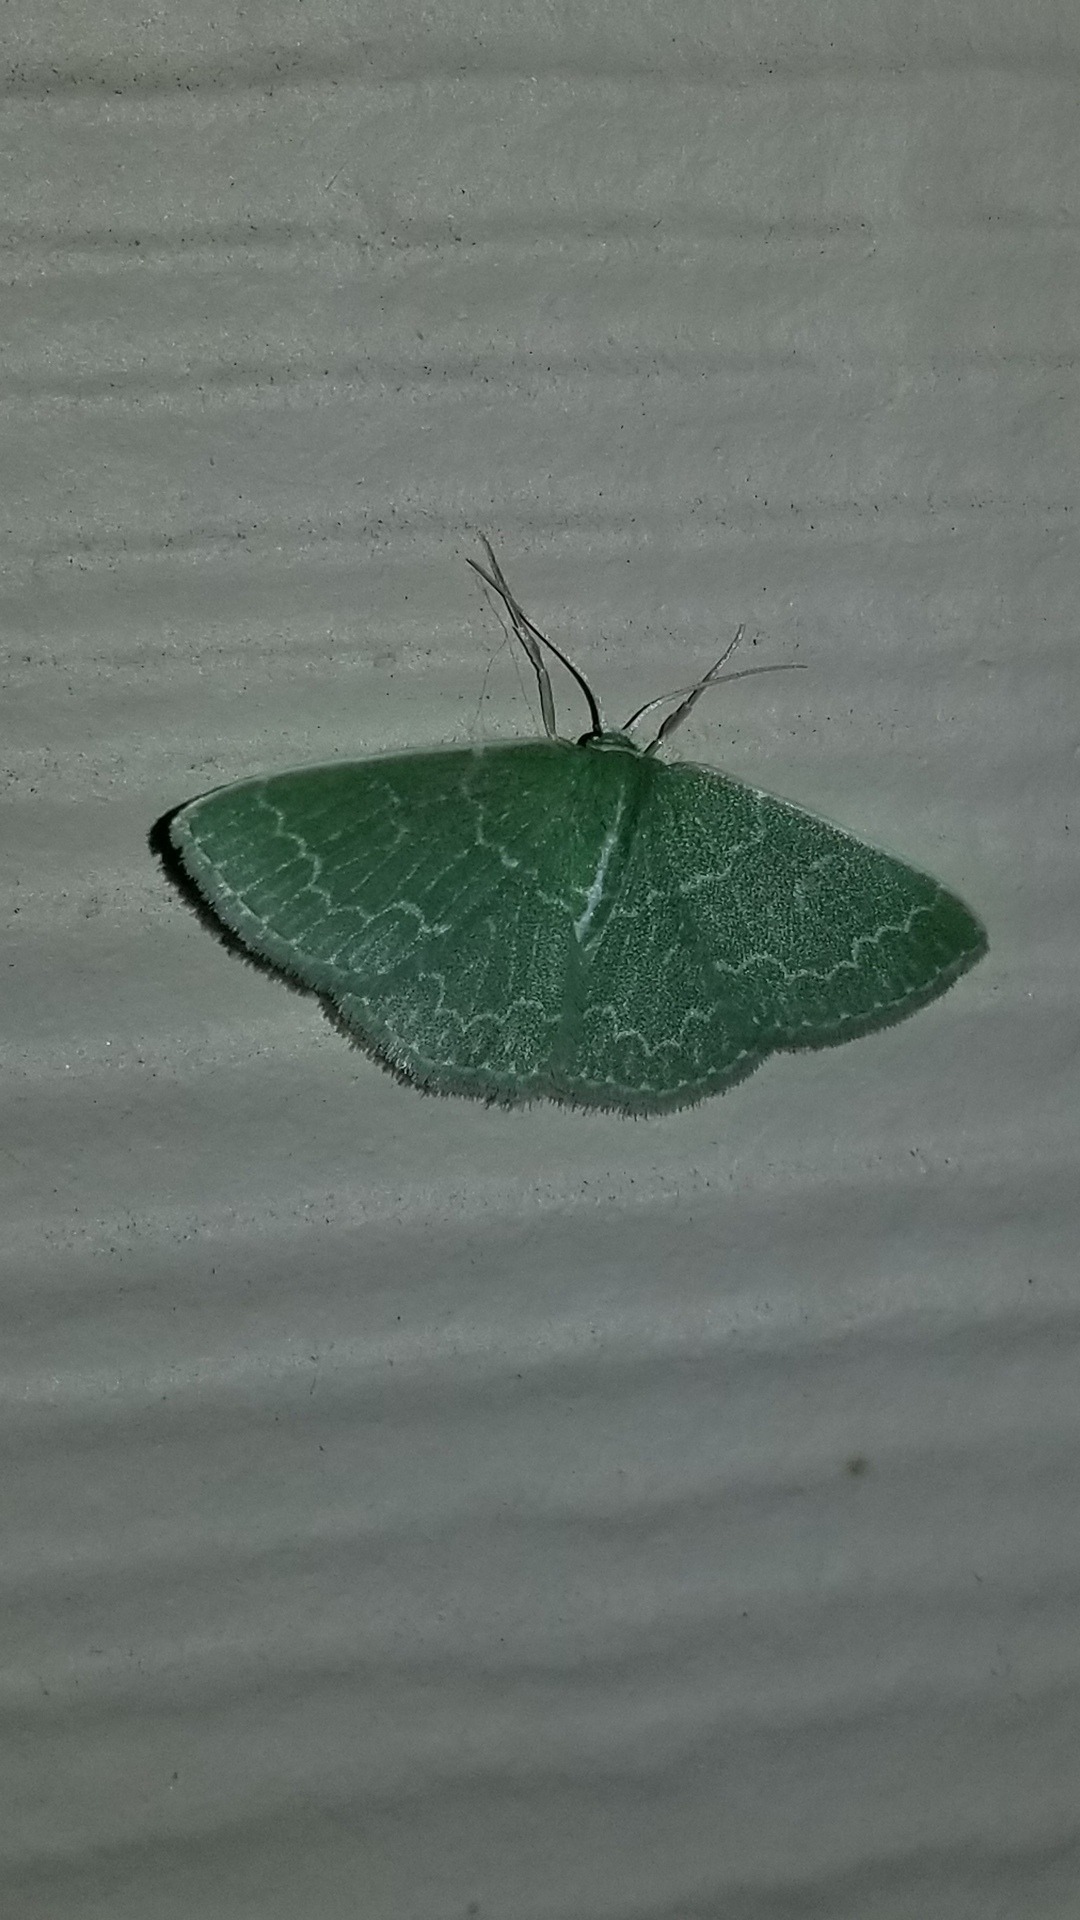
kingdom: Animalia
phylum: Arthropoda
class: Insecta
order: Lepidoptera
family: Geometridae
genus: Synchlora
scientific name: Synchlora frondaria
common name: Southern emerald
